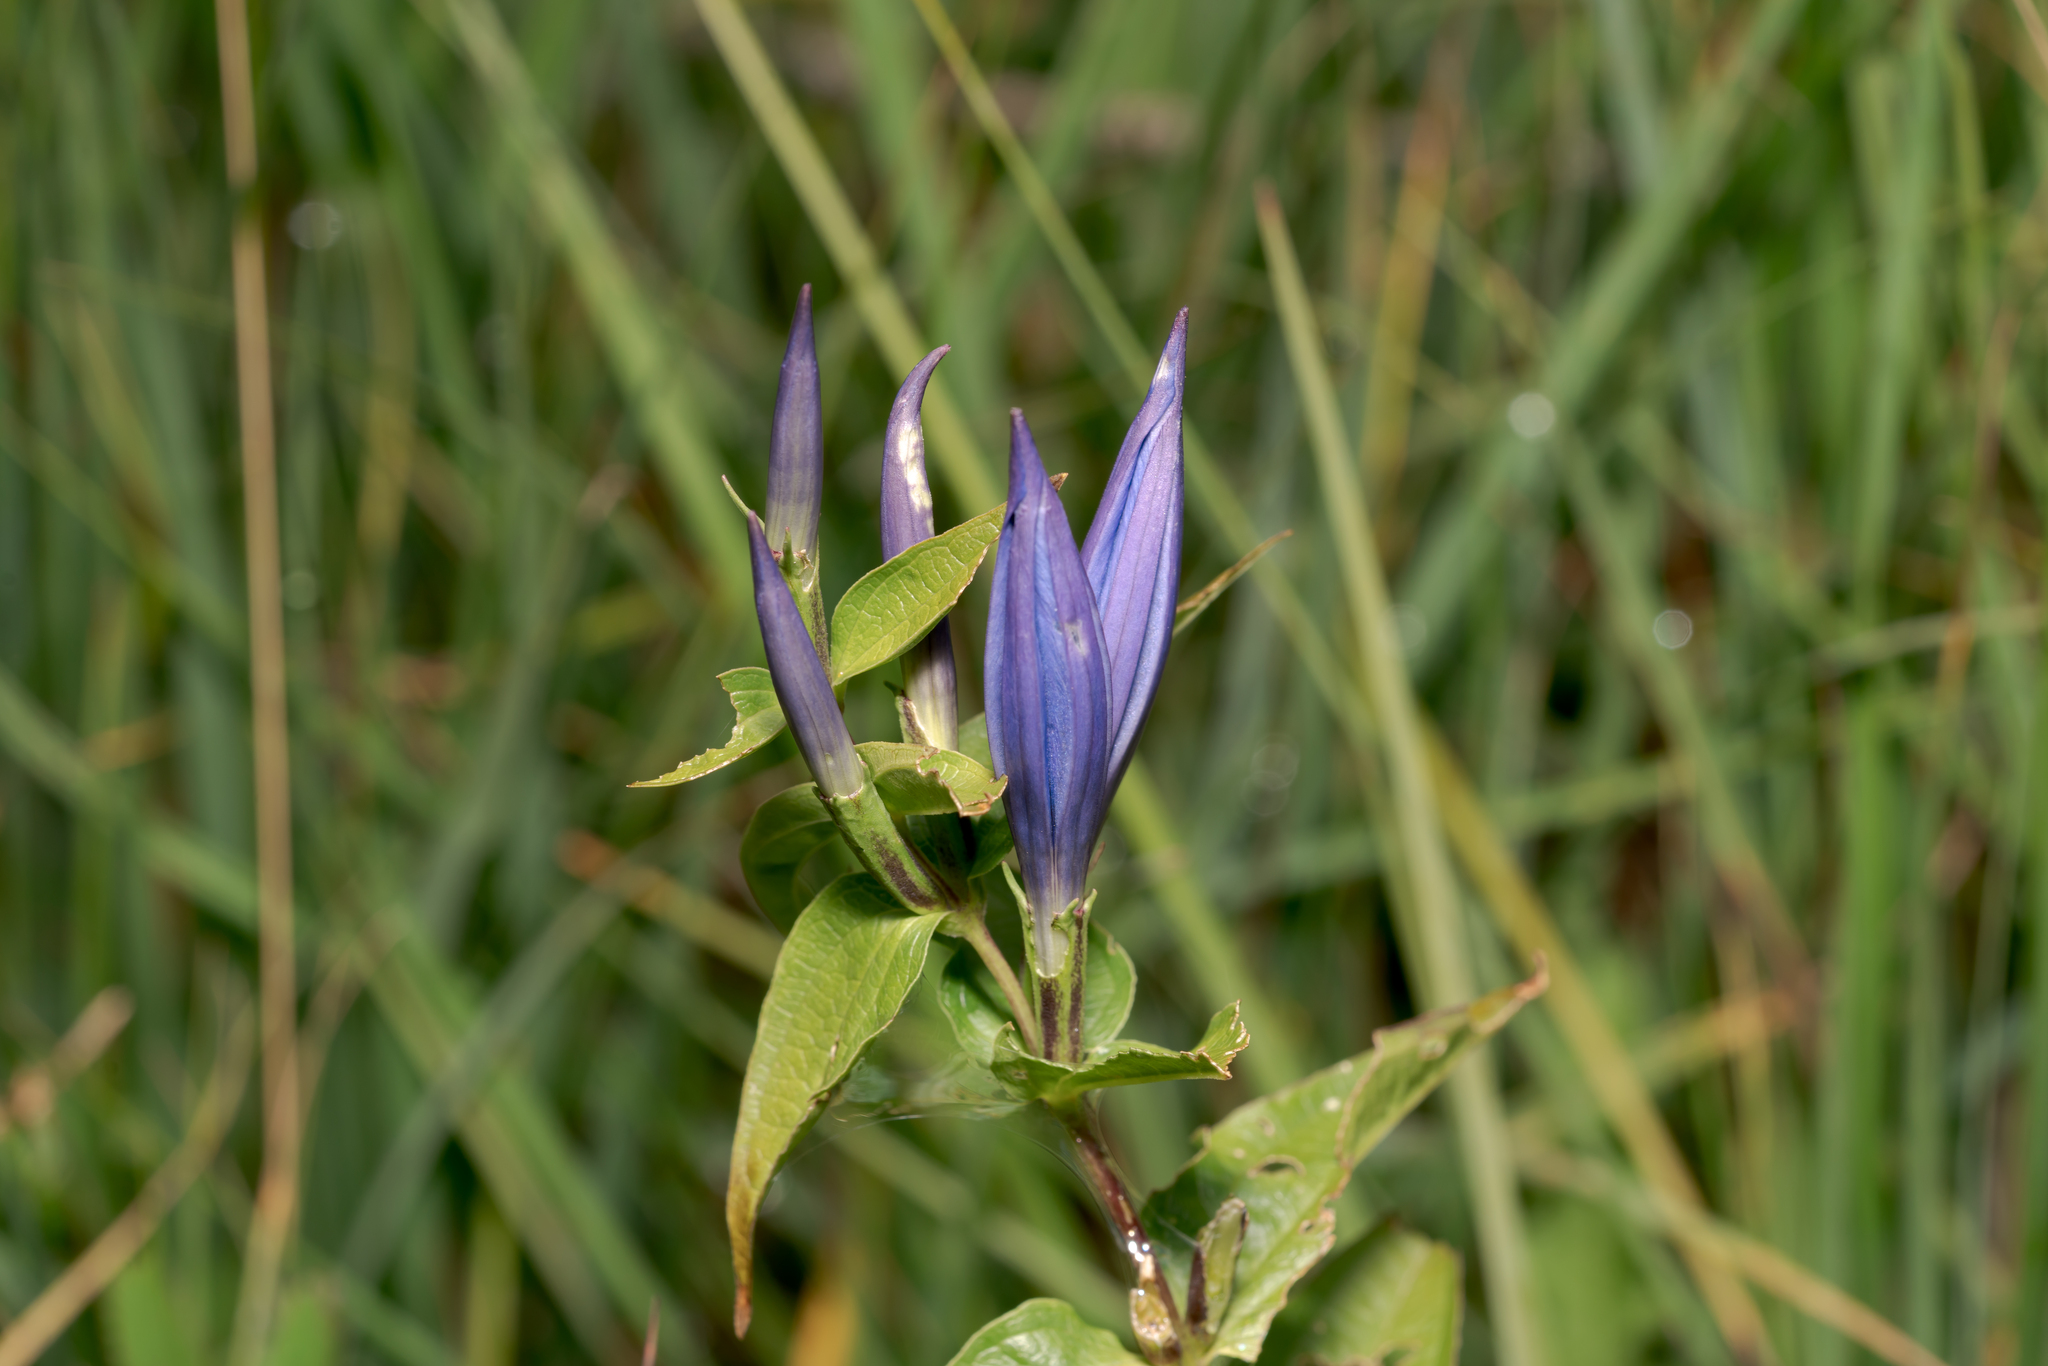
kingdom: Plantae
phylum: Tracheophyta
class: Magnoliopsida
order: Gentianales
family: Gentianaceae
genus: Gentiana
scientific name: Gentiana asclepiadea
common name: Willow gentian
